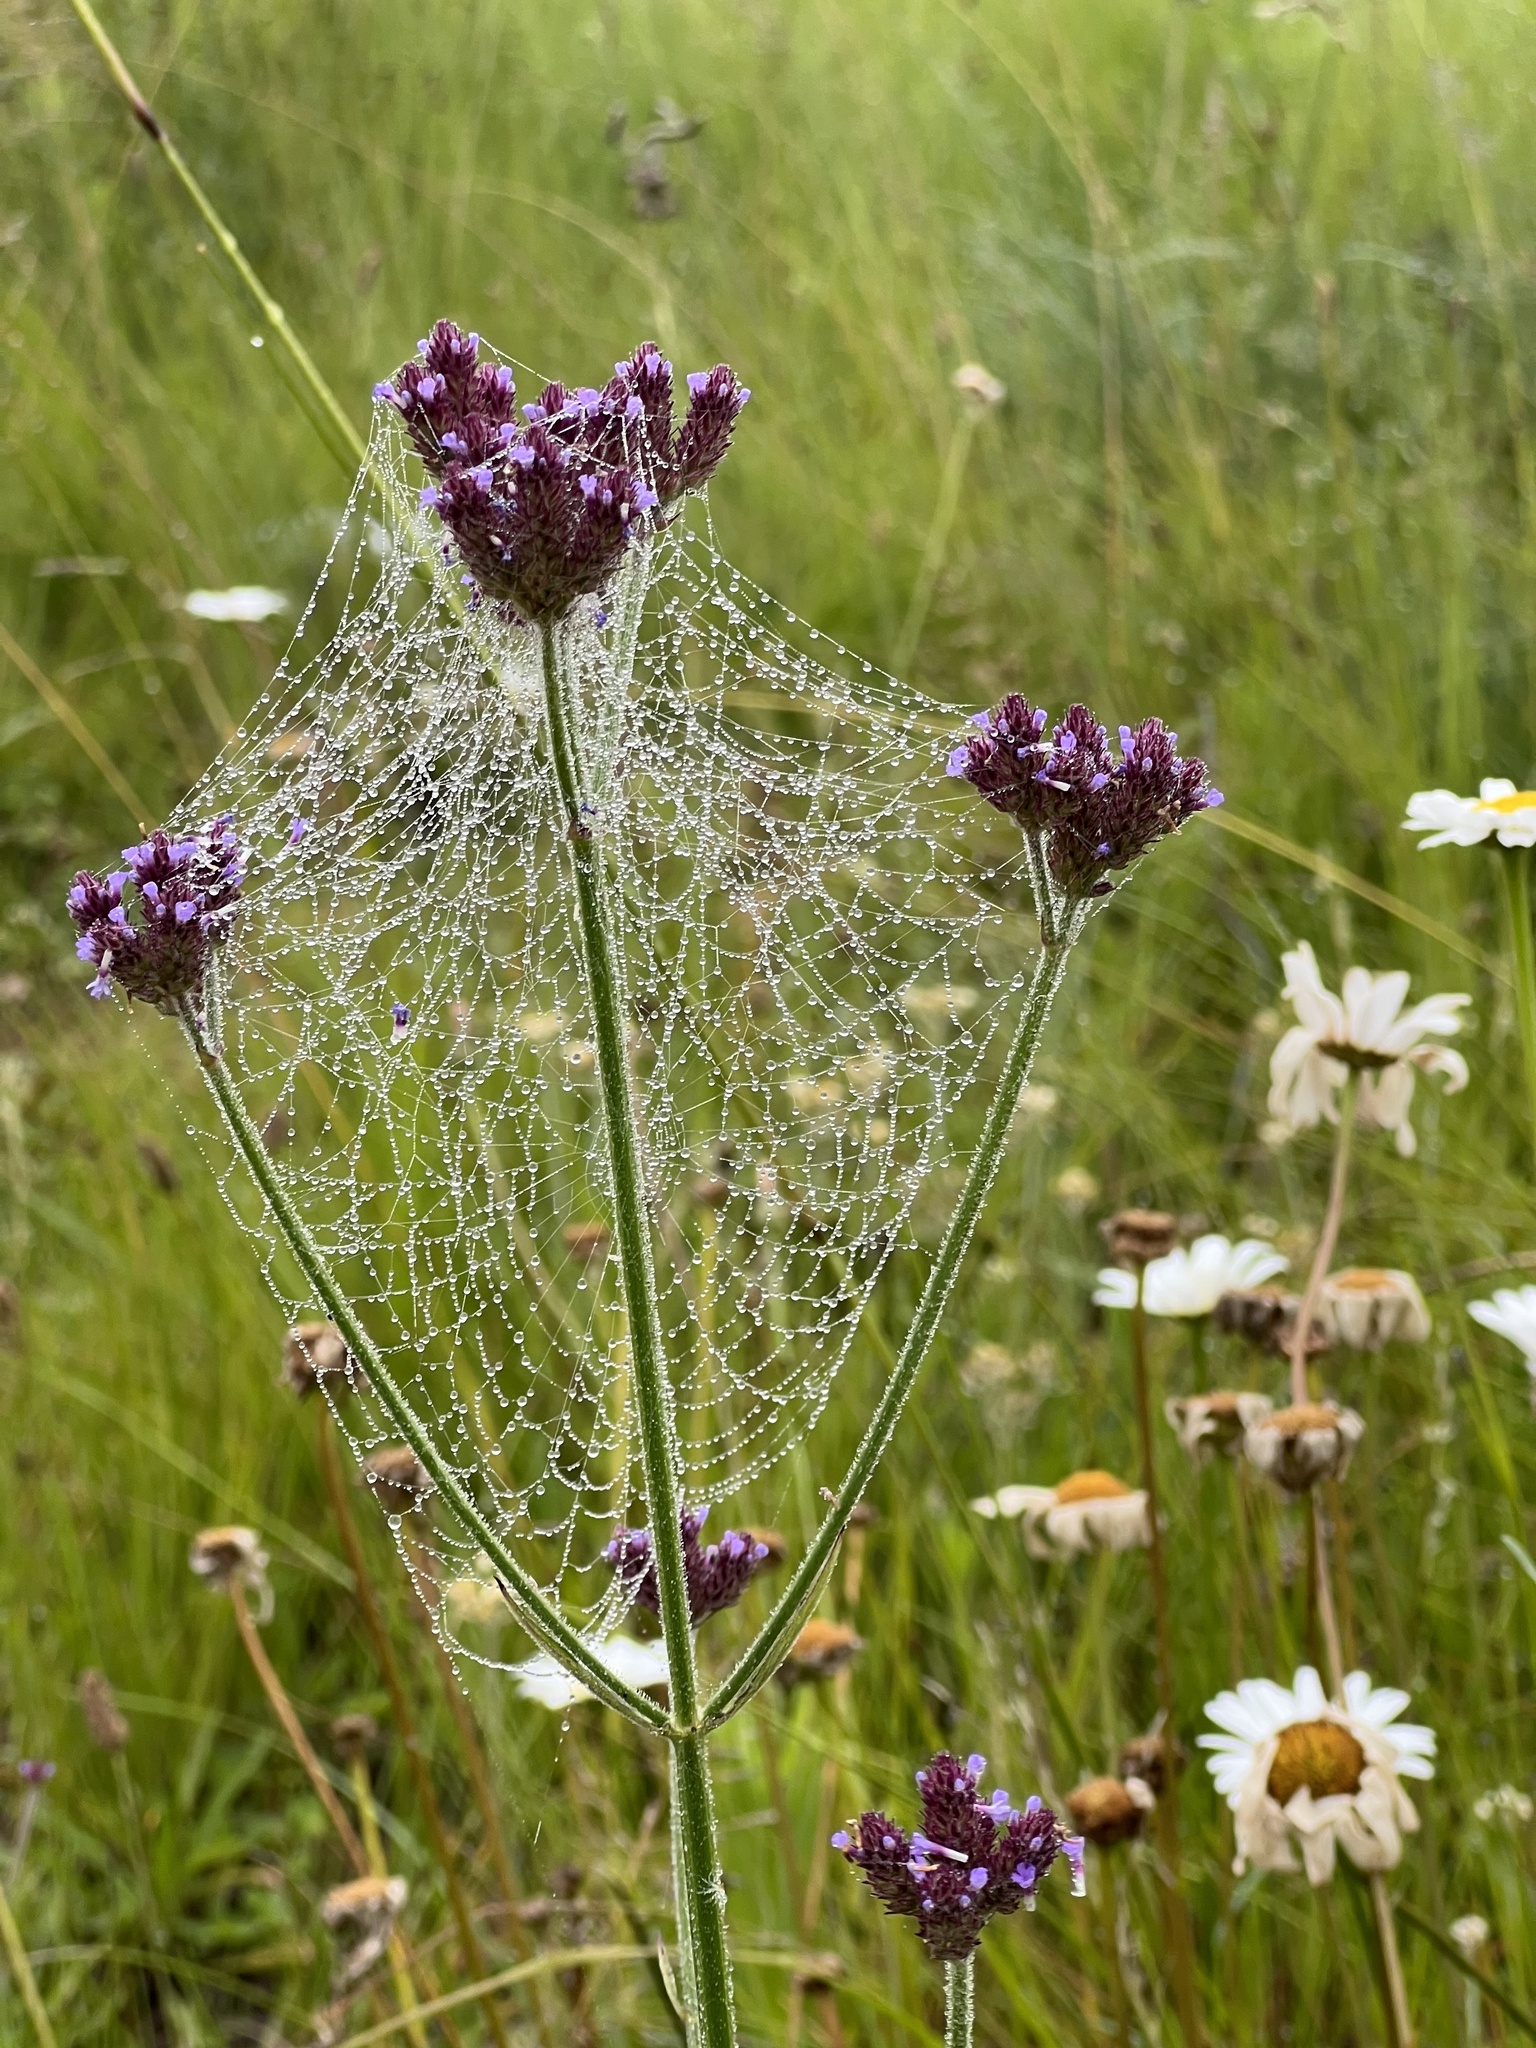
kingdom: Plantae
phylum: Tracheophyta
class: Magnoliopsida
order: Lamiales
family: Verbenaceae
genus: Verbena
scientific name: Verbena bonariensis
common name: Purpletop vervain
